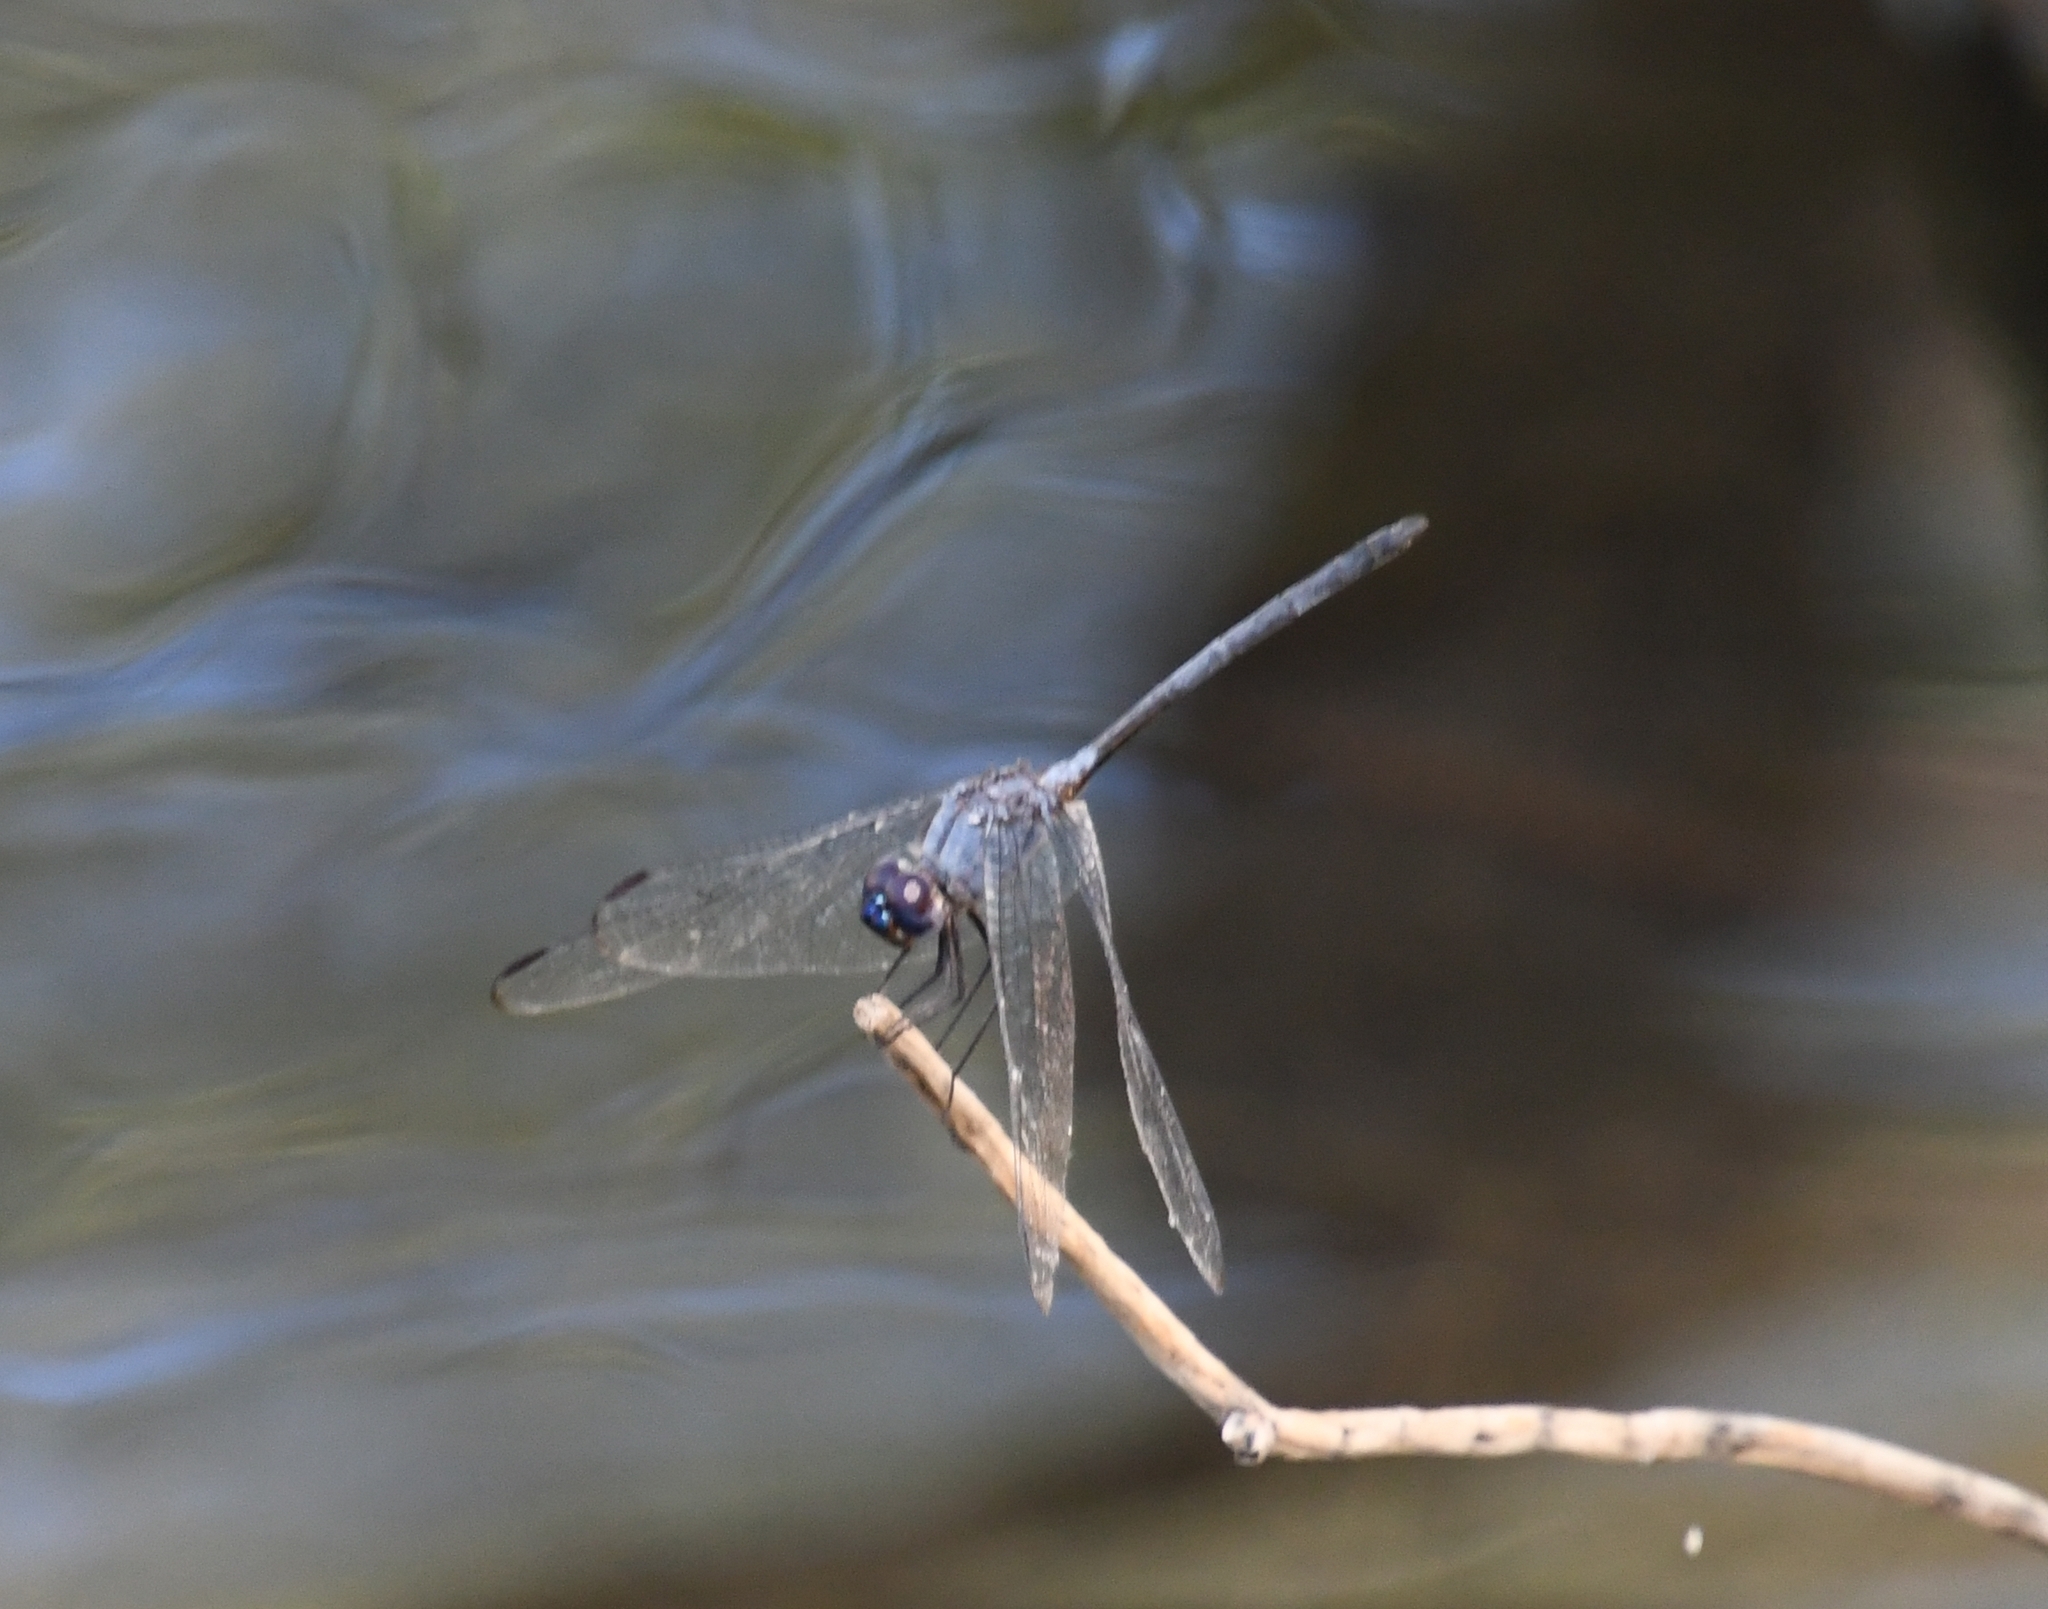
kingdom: Animalia
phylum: Arthropoda
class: Insecta
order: Odonata
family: Libellulidae
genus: Dythemis
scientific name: Dythemis nigrescens
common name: Black setwing
